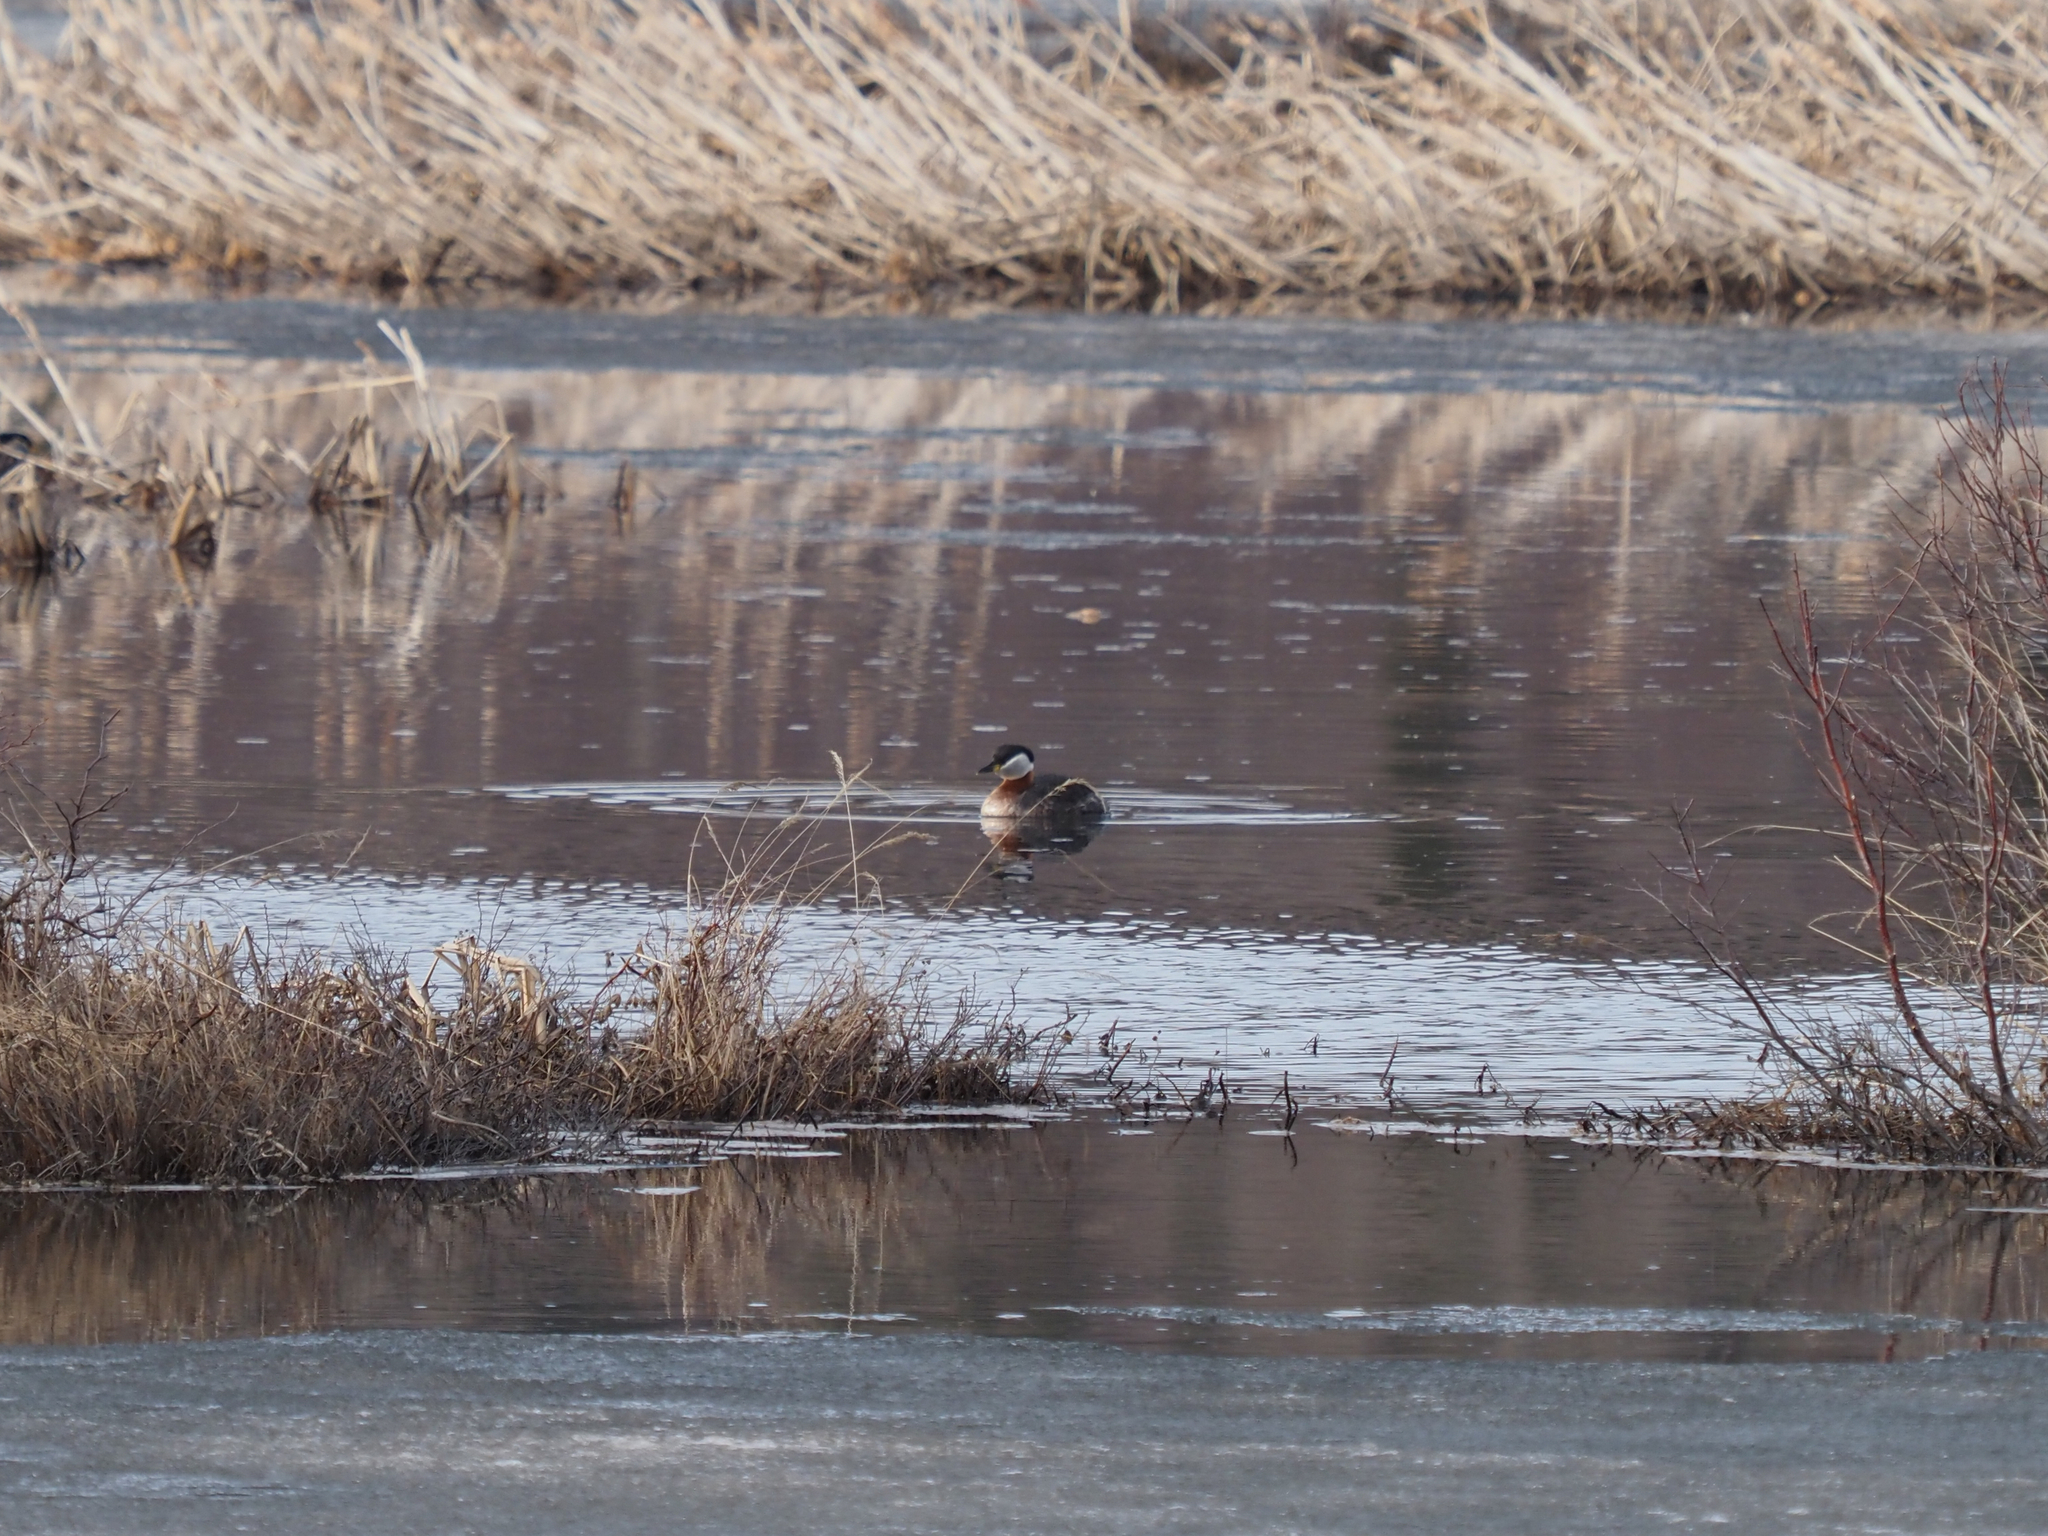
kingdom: Animalia
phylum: Chordata
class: Aves
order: Podicipediformes
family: Podicipedidae
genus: Podiceps
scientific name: Podiceps grisegena
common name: Red-necked grebe
